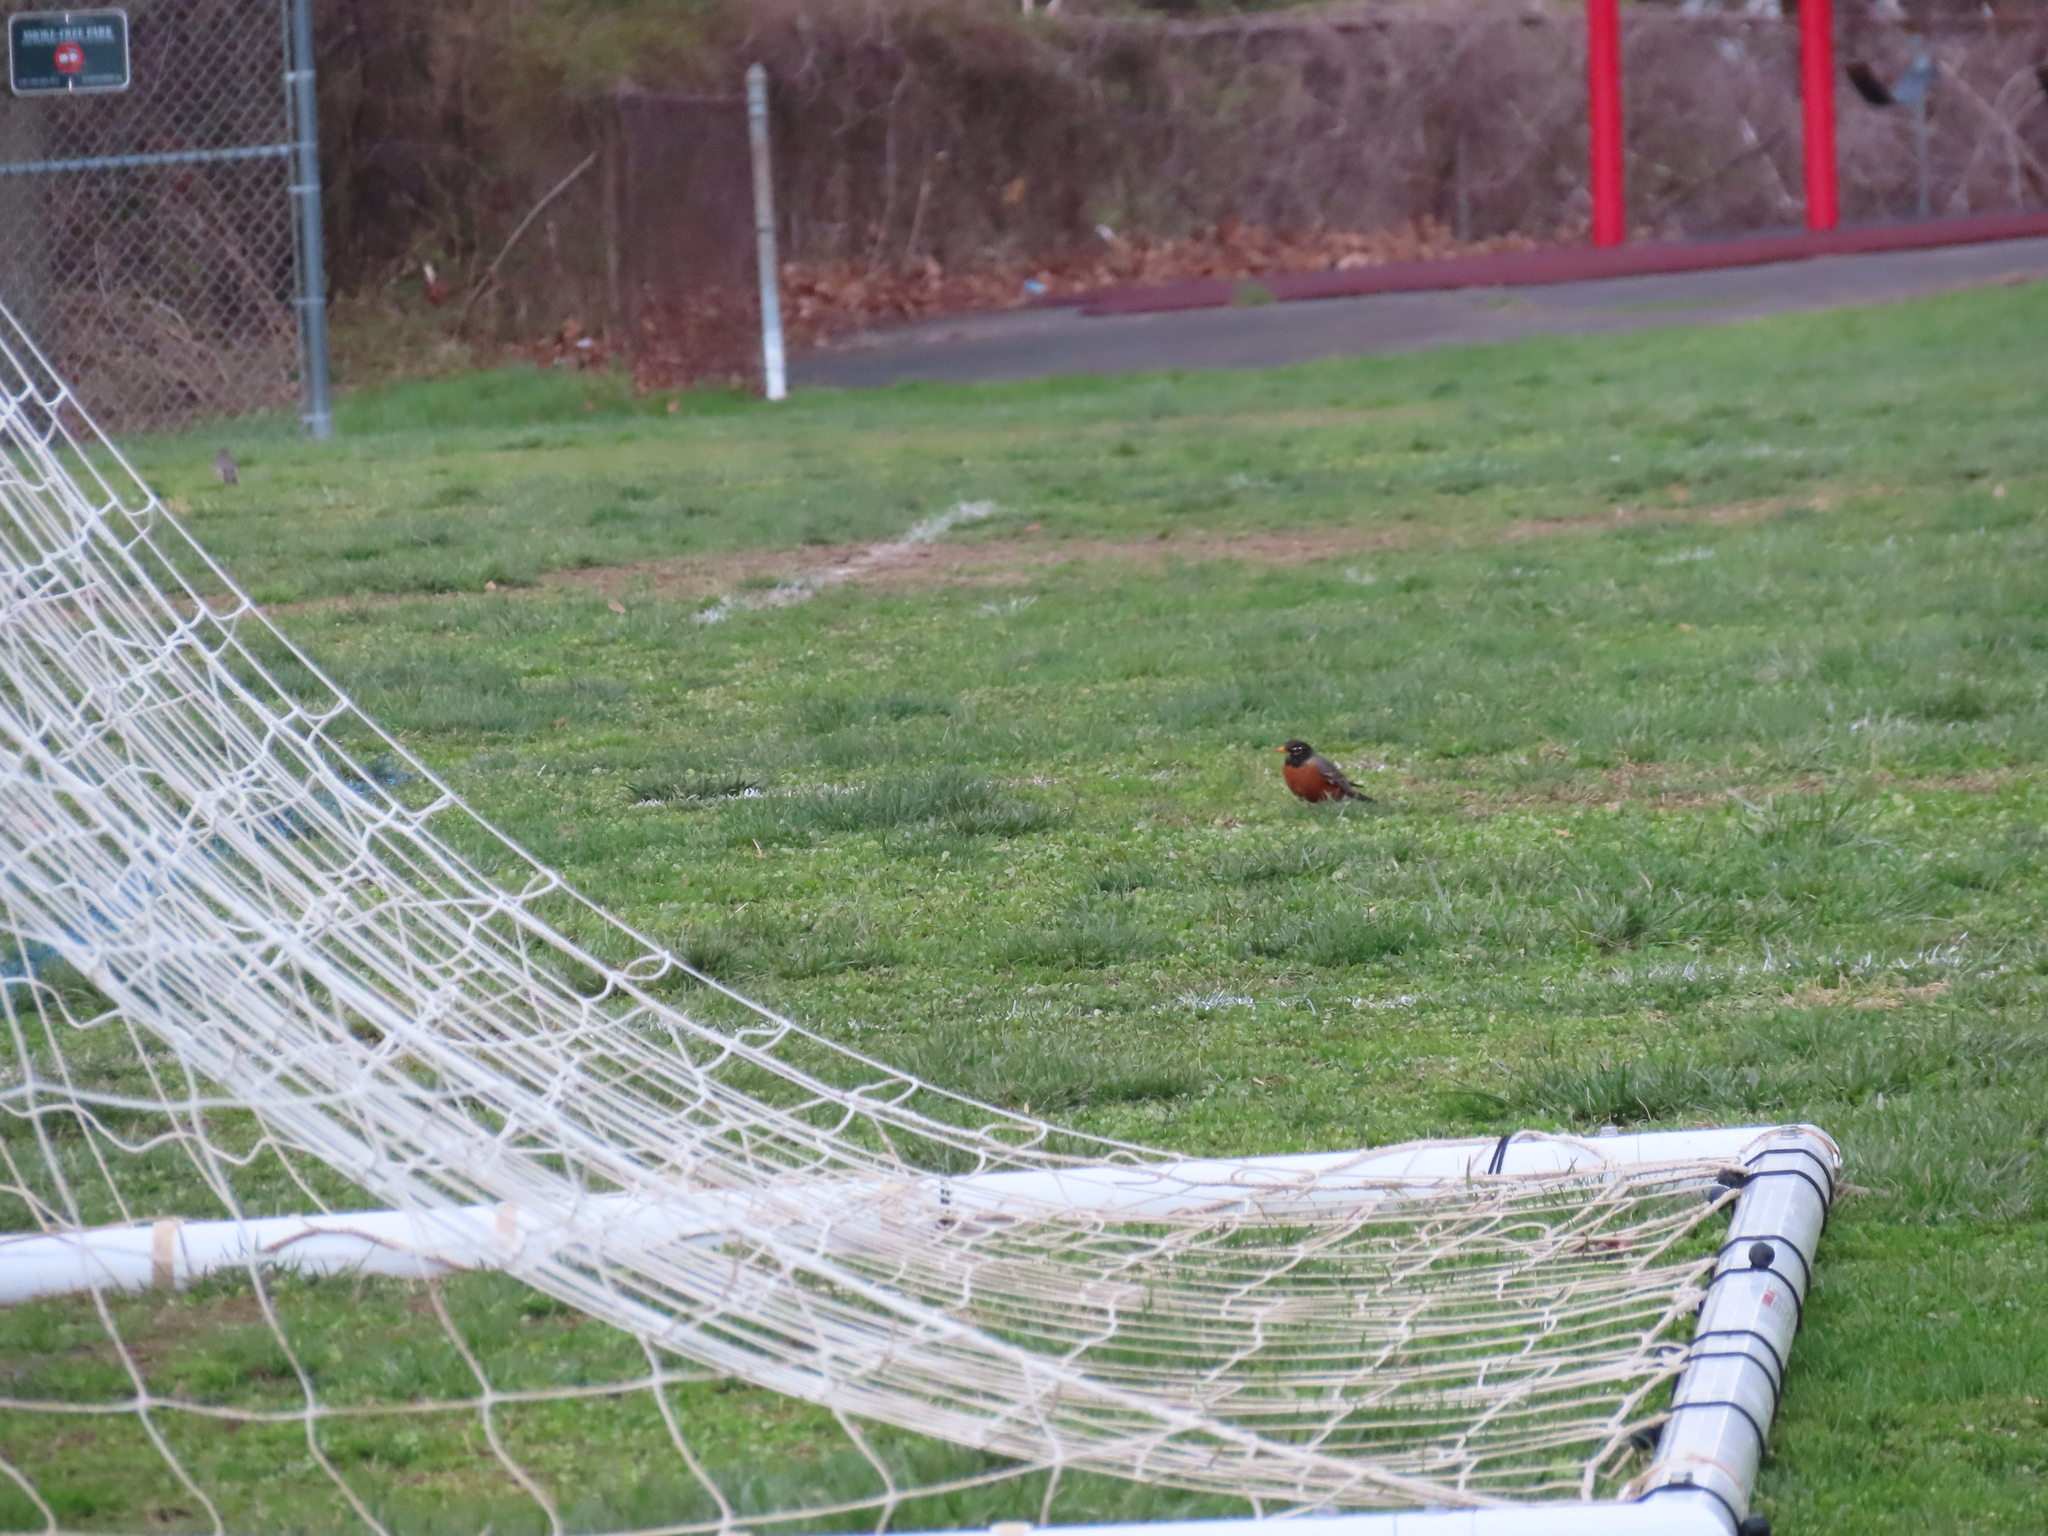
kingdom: Animalia
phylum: Chordata
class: Aves
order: Passeriformes
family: Turdidae
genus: Turdus
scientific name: Turdus migratorius
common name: American robin
